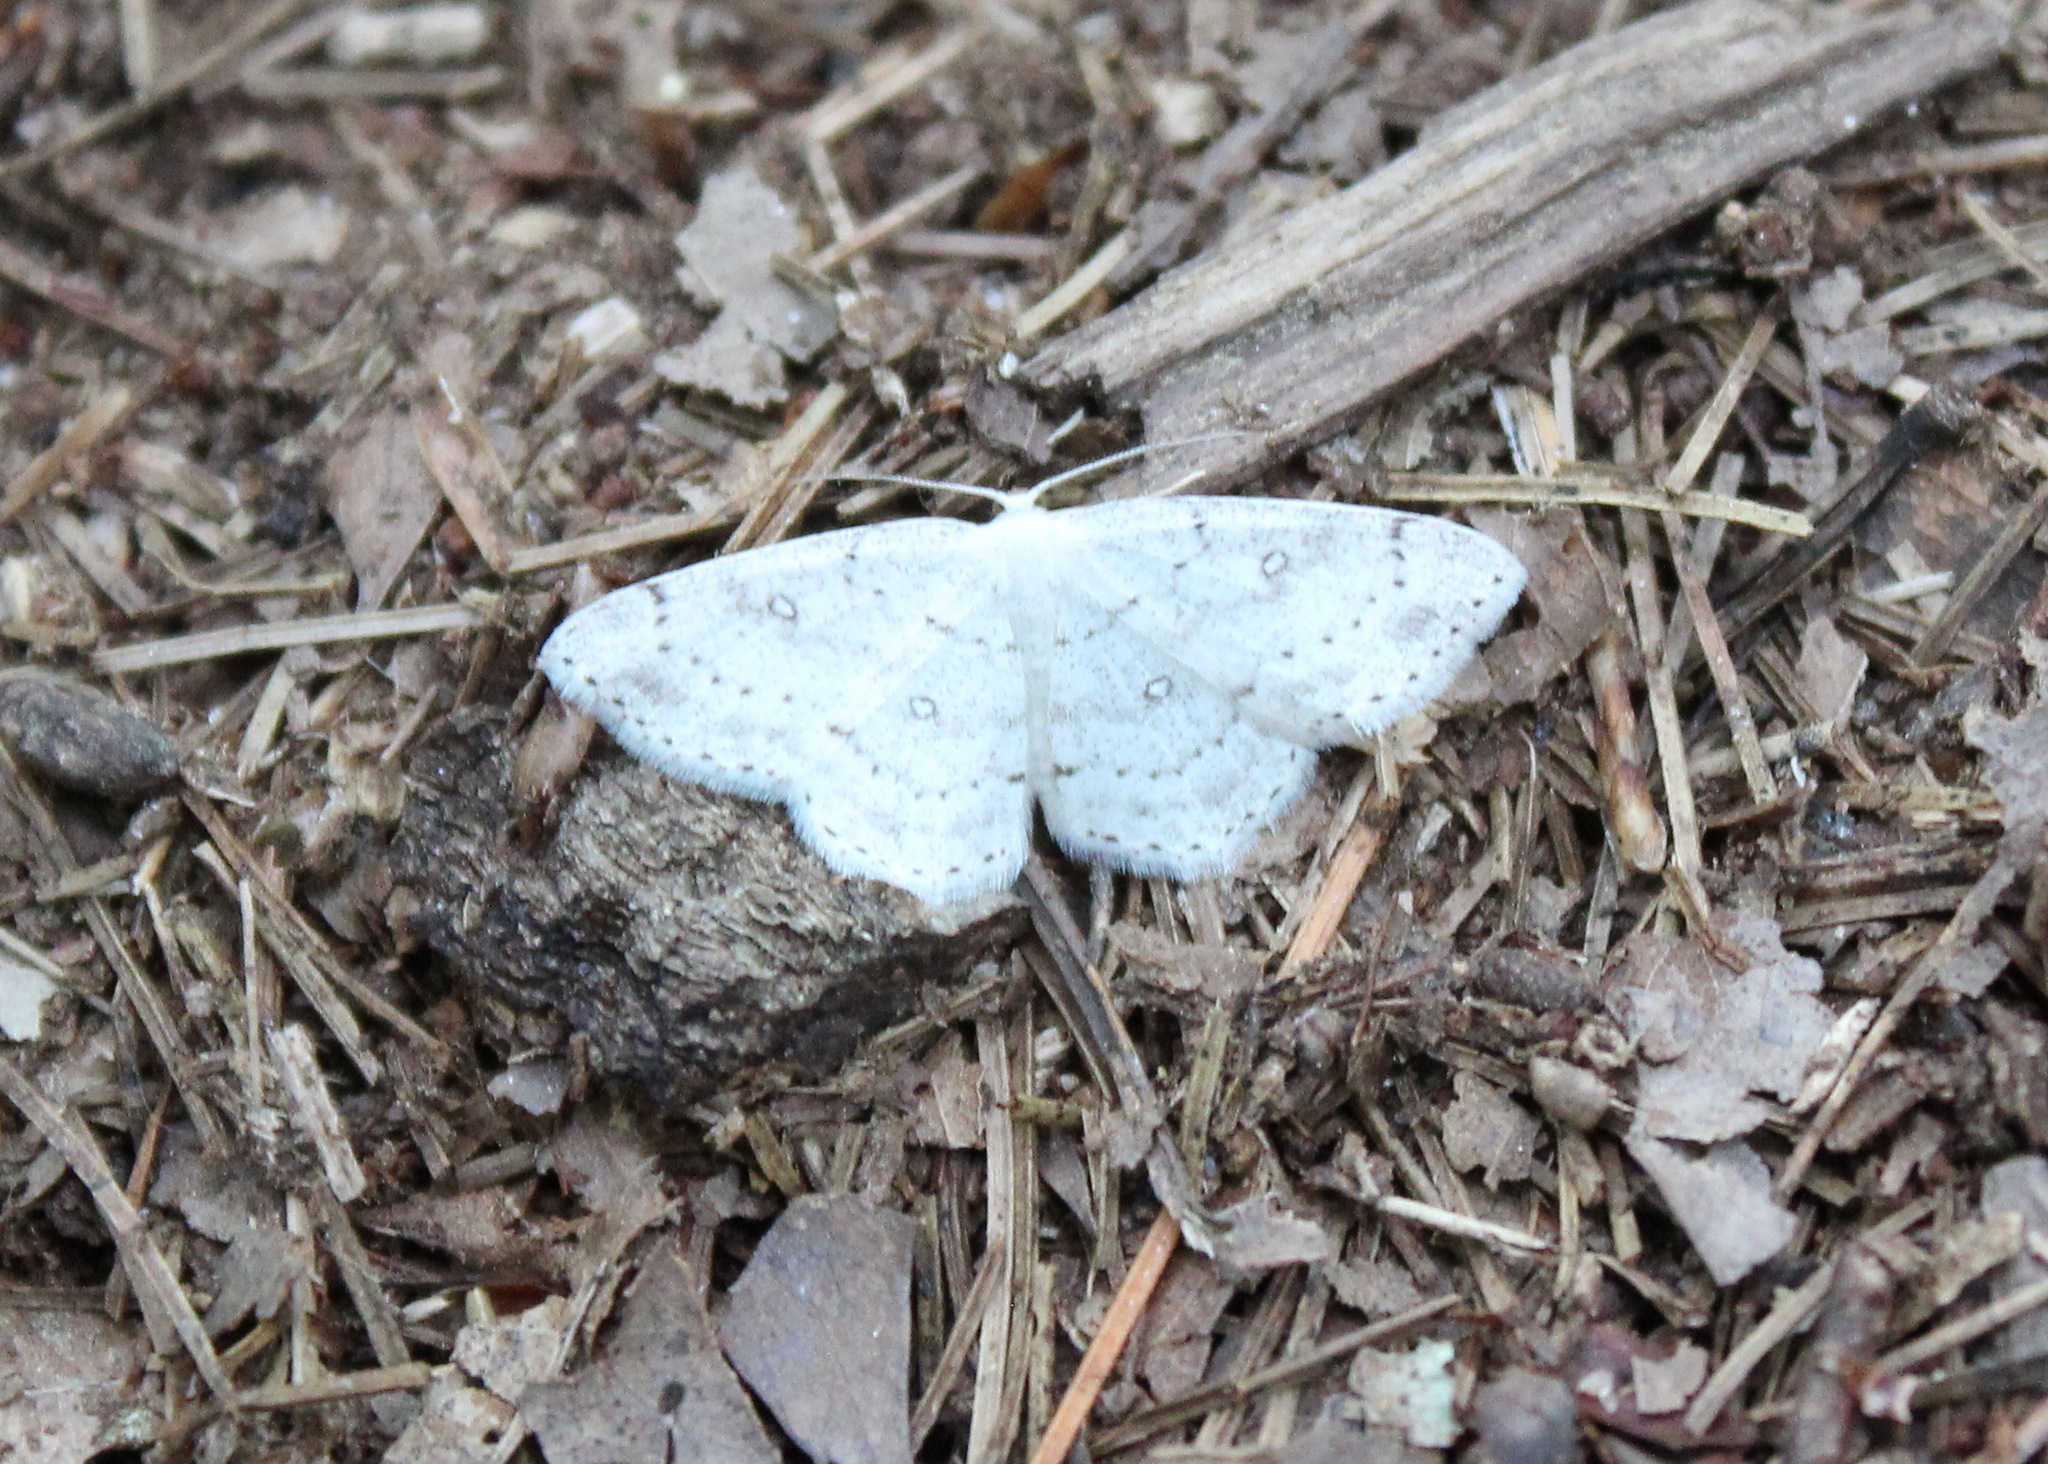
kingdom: Animalia
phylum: Arthropoda
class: Insecta
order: Lepidoptera
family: Geometridae
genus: Cyclophora
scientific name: Cyclophora pendulinaria
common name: Sweet fern geometer
